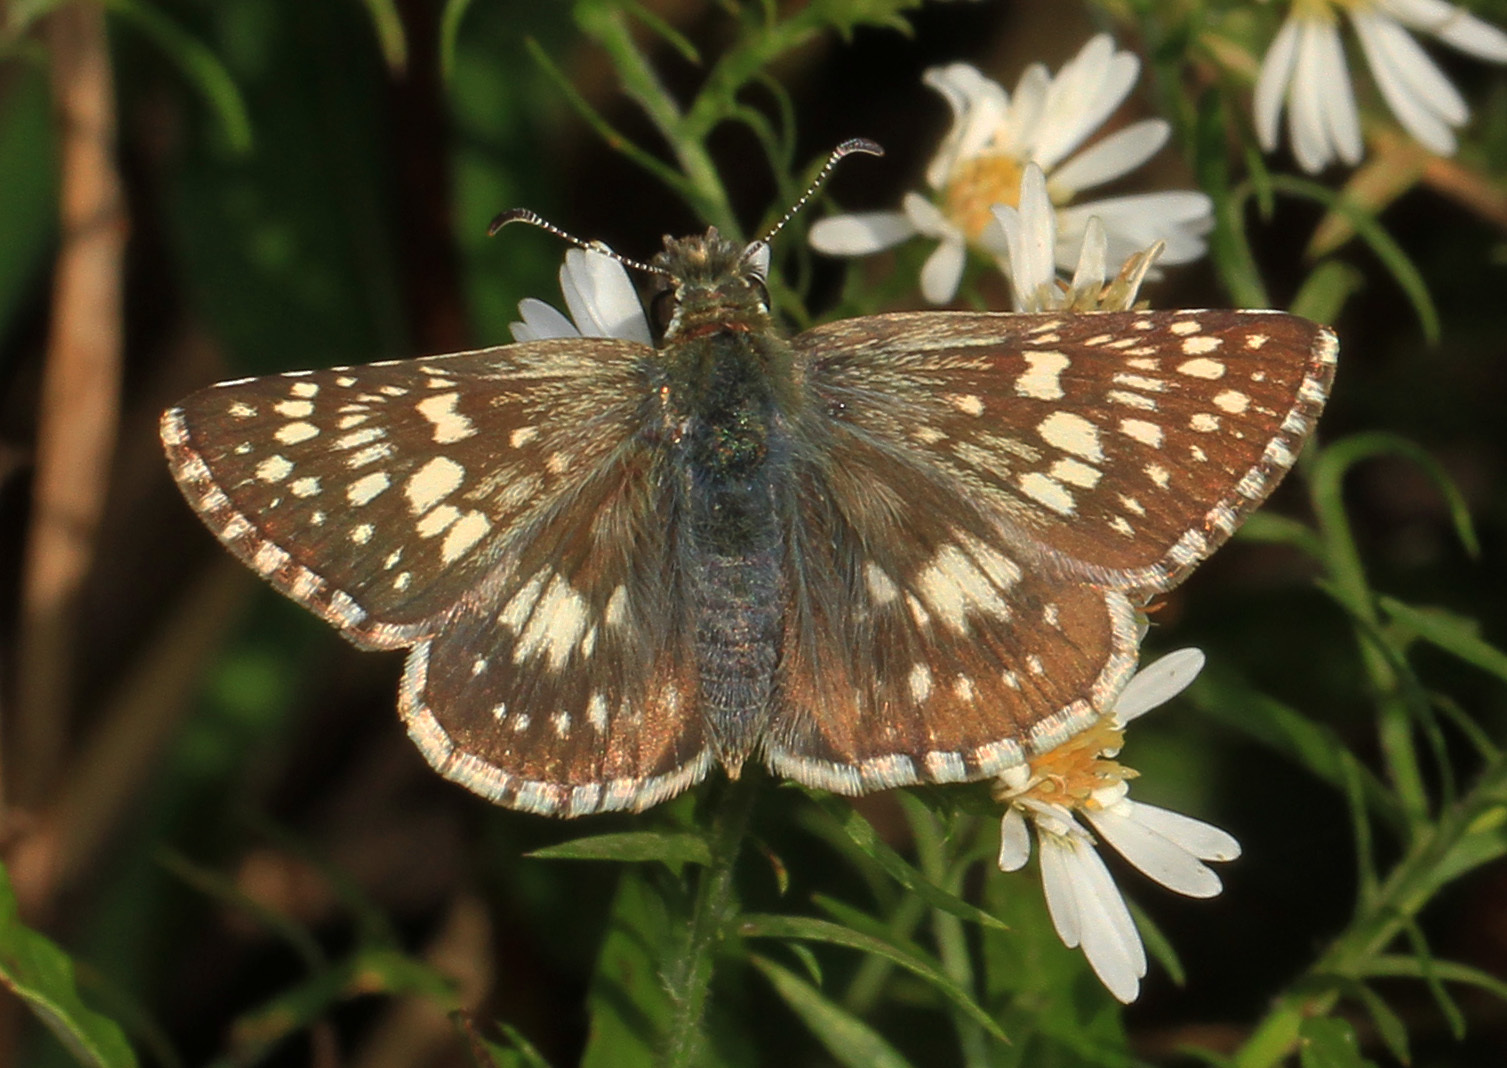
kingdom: Animalia
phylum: Arthropoda
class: Insecta
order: Lepidoptera
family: Hesperiidae
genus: Burnsius
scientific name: Burnsius communis
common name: Common checkered-skipper
